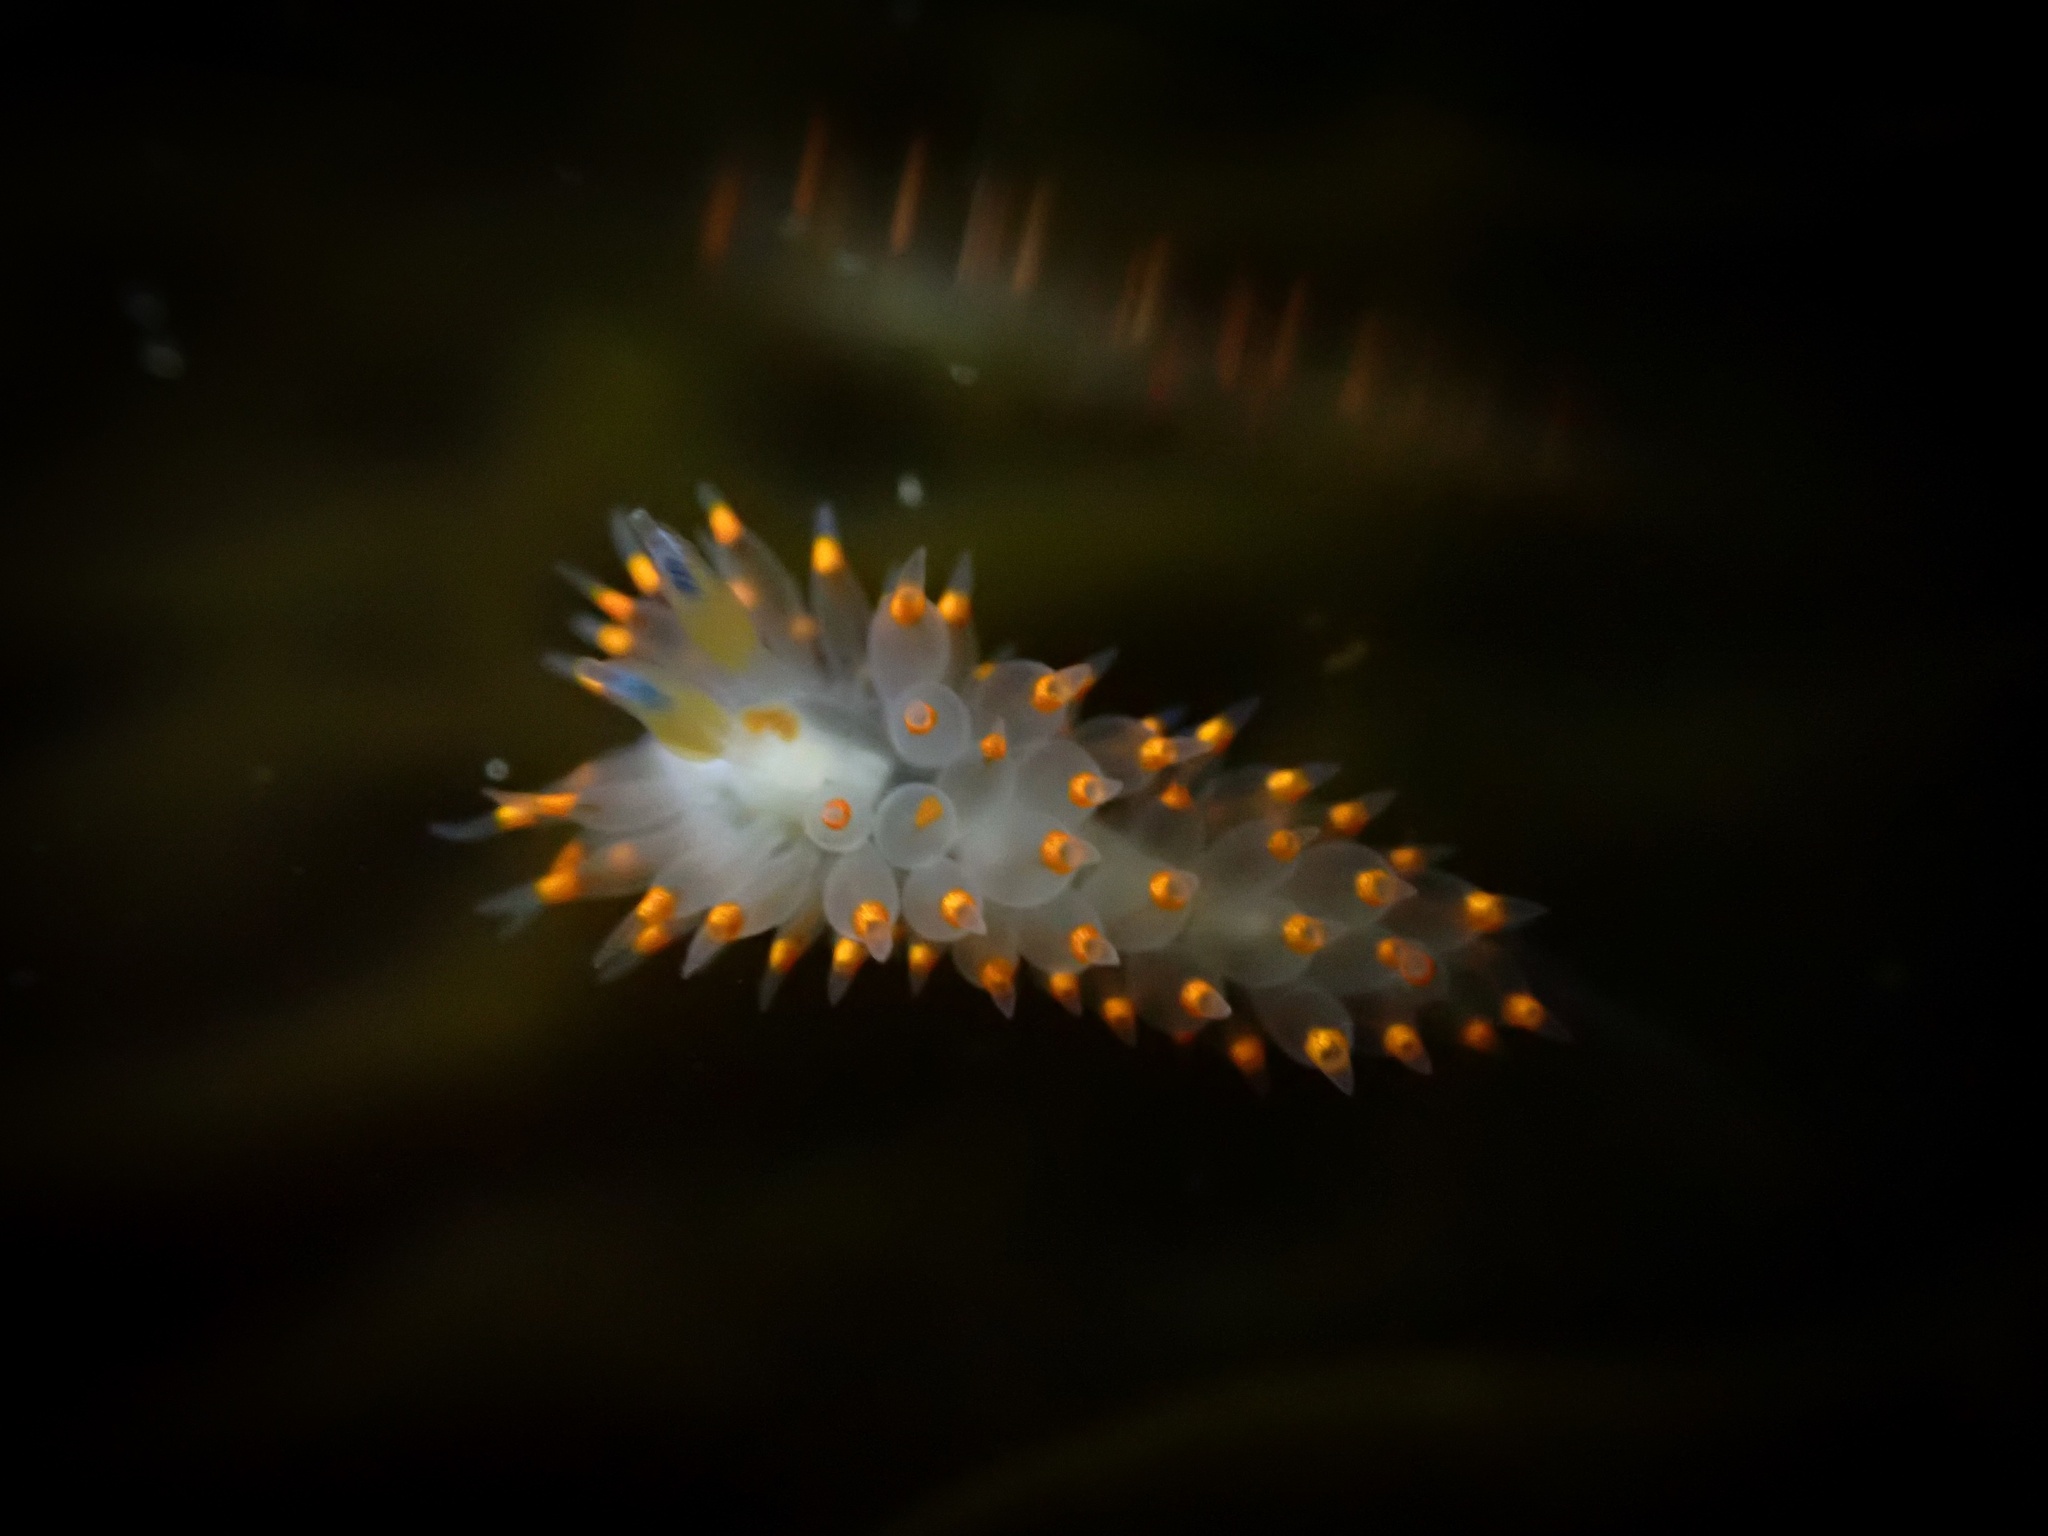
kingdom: Animalia
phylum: Mollusca
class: Gastropoda
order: Nudibranchia
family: Janolidae
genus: Antiopella
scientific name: Antiopella barbarensis
